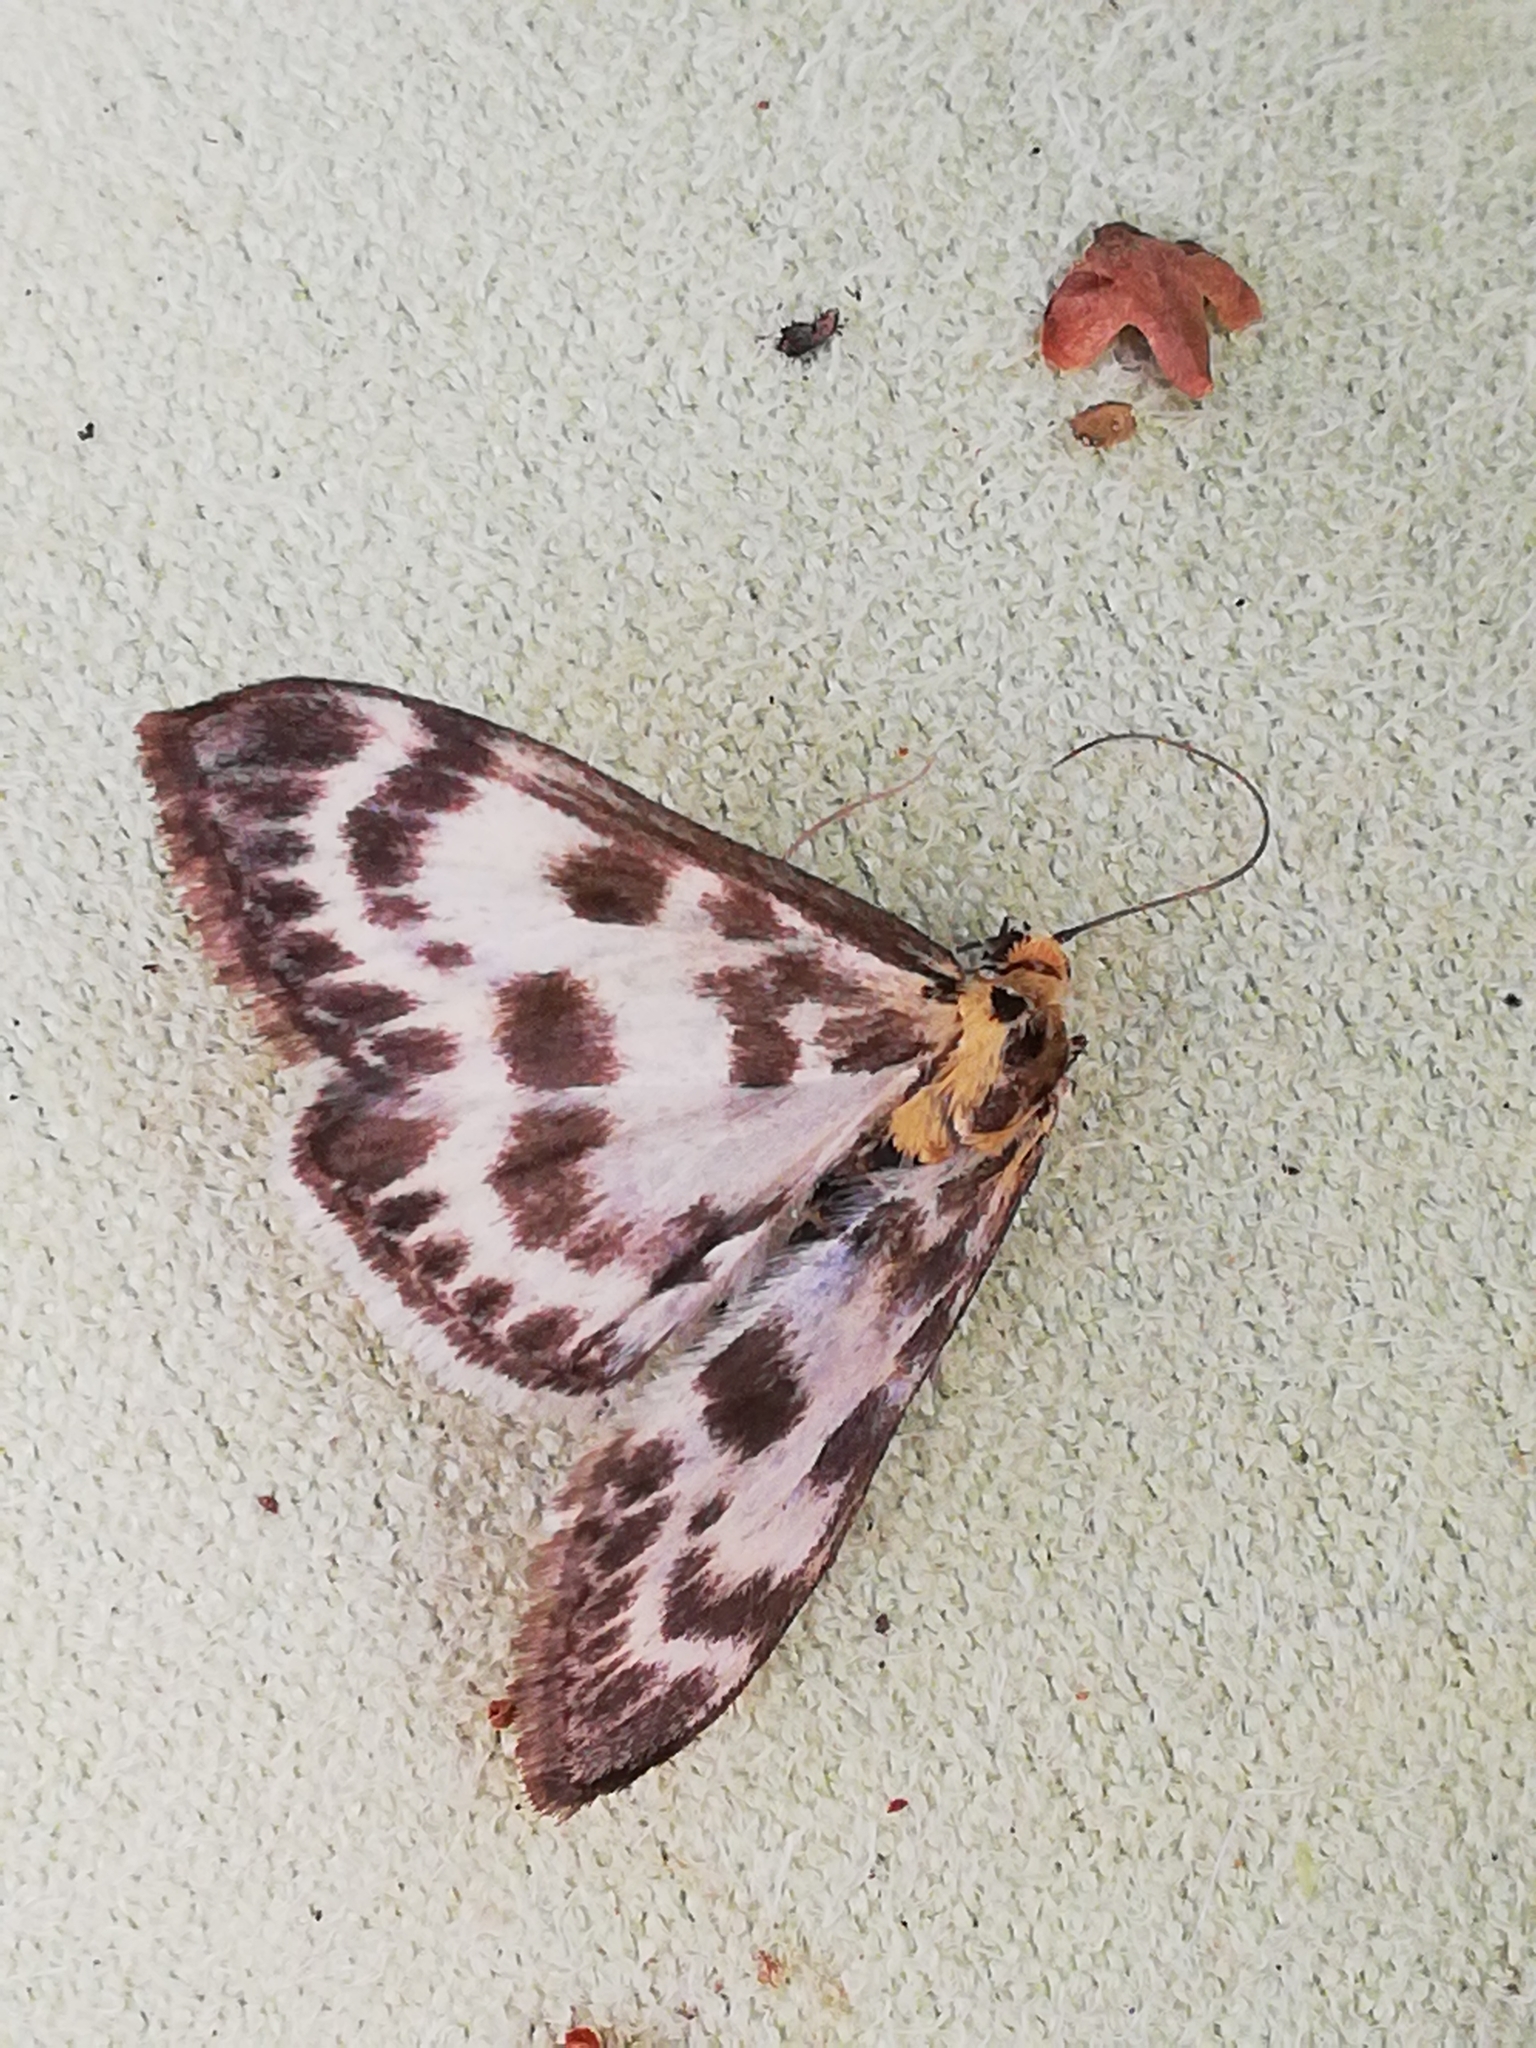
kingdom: Animalia
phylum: Arthropoda
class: Insecta
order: Lepidoptera
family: Crambidae
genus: Anania
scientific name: Anania hortulata
